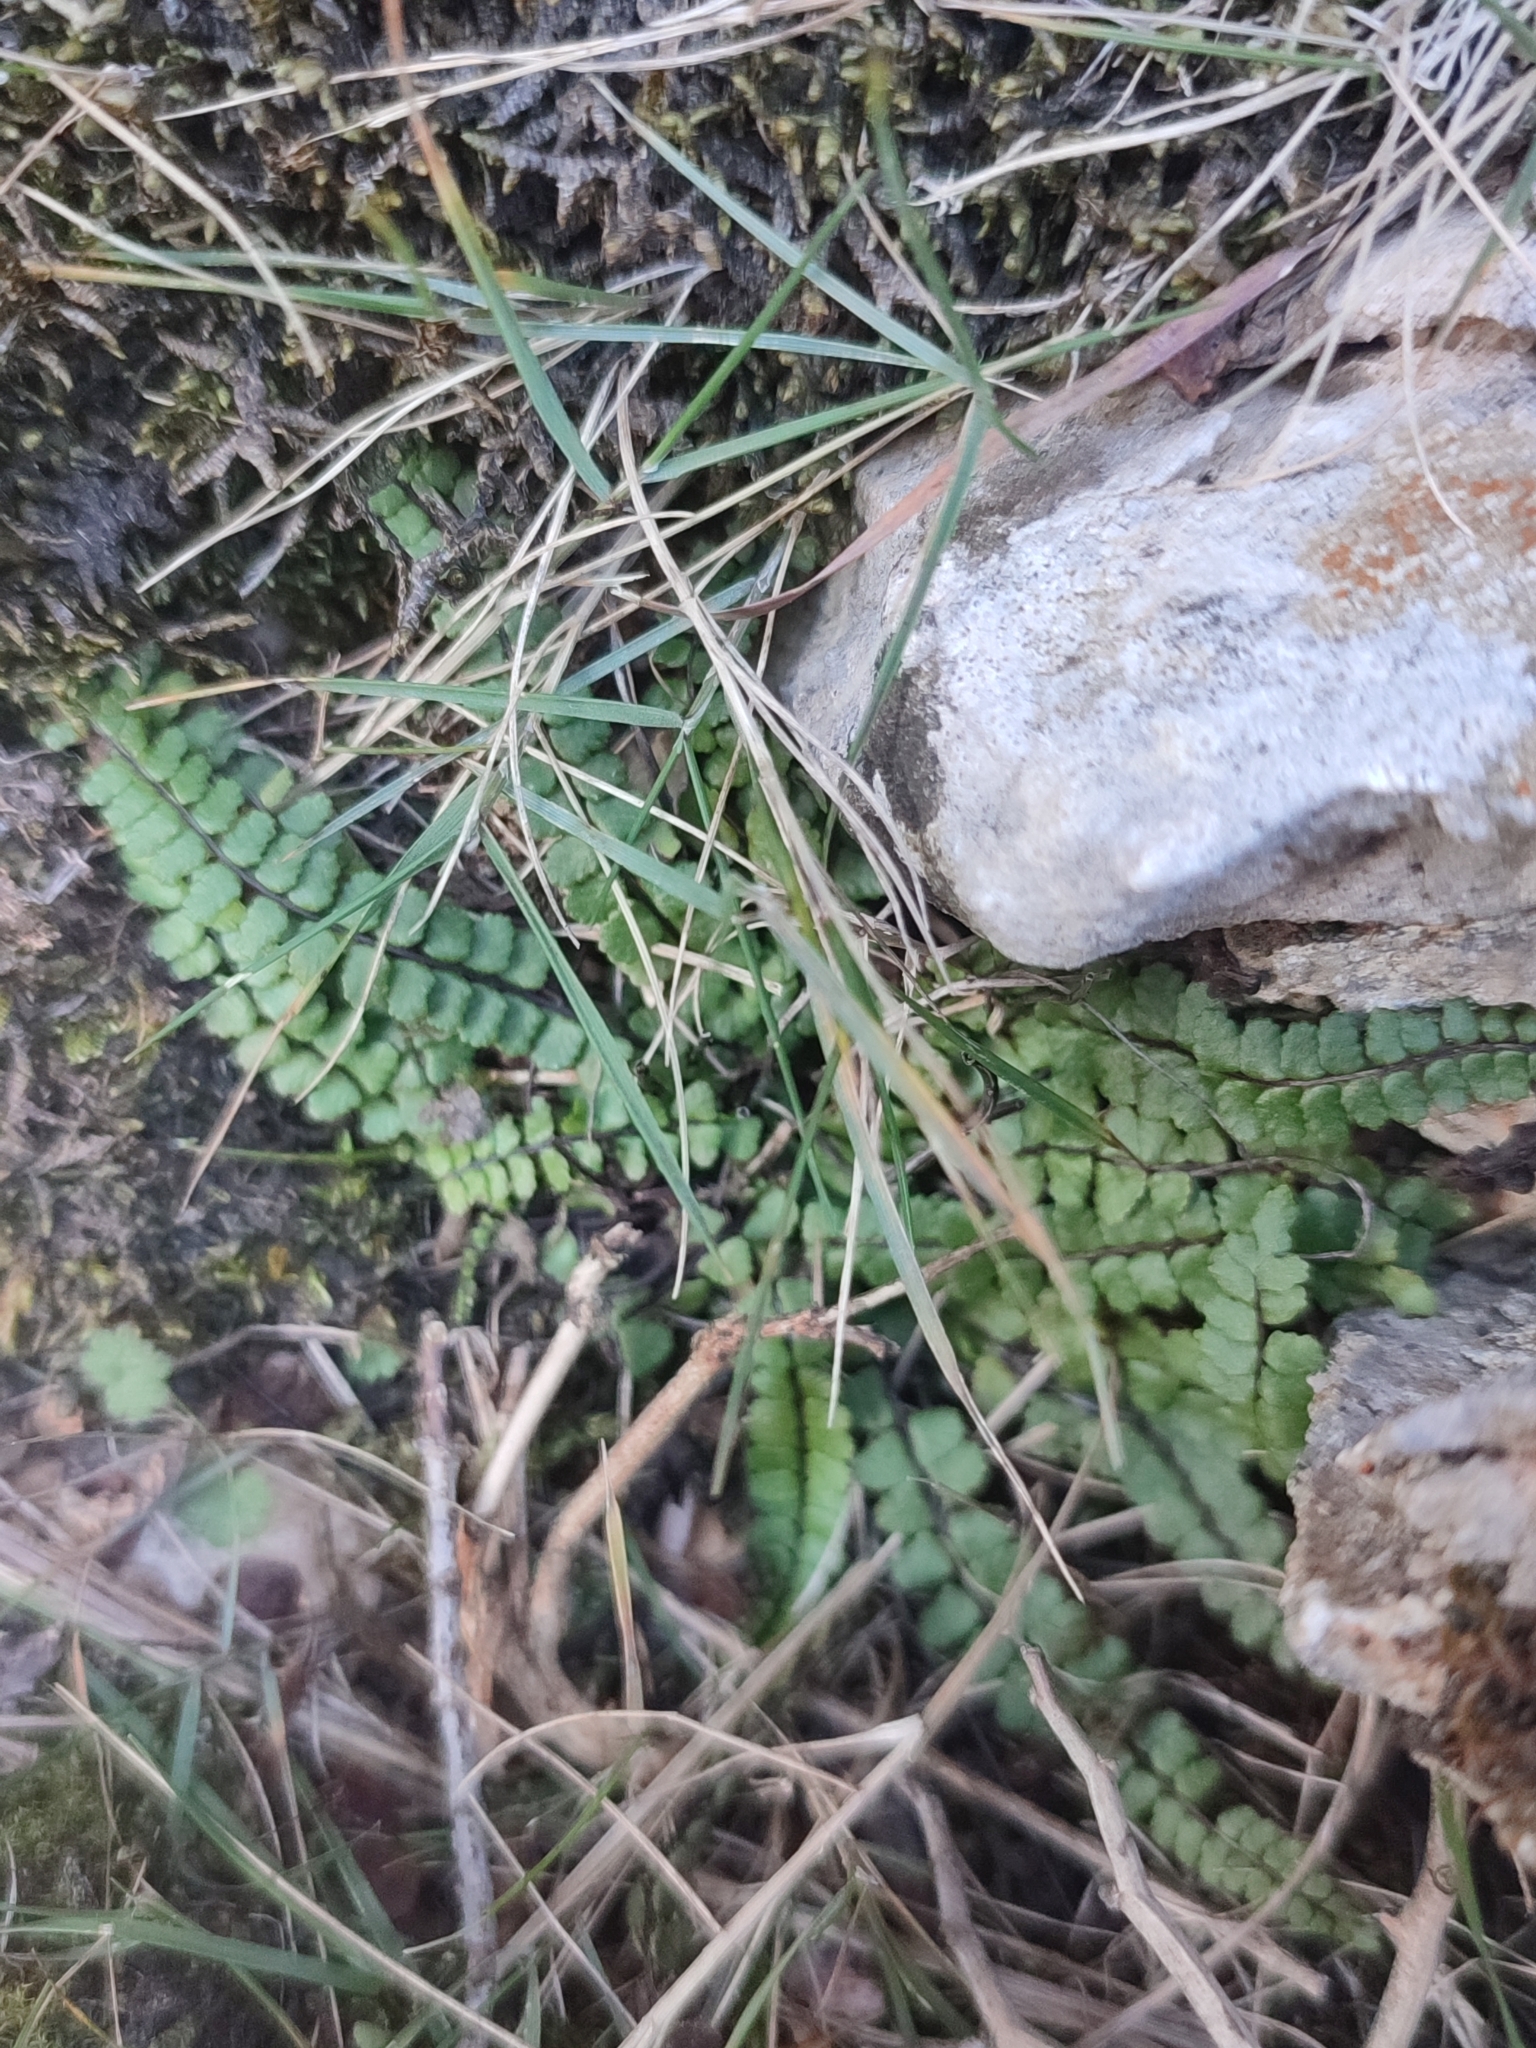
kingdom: Plantae
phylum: Tracheophyta
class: Polypodiopsida
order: Polypodiales
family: Aspleniaceae
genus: Asplenium
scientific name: Asplenium trichomanes
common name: Maidenhair spleenwort
